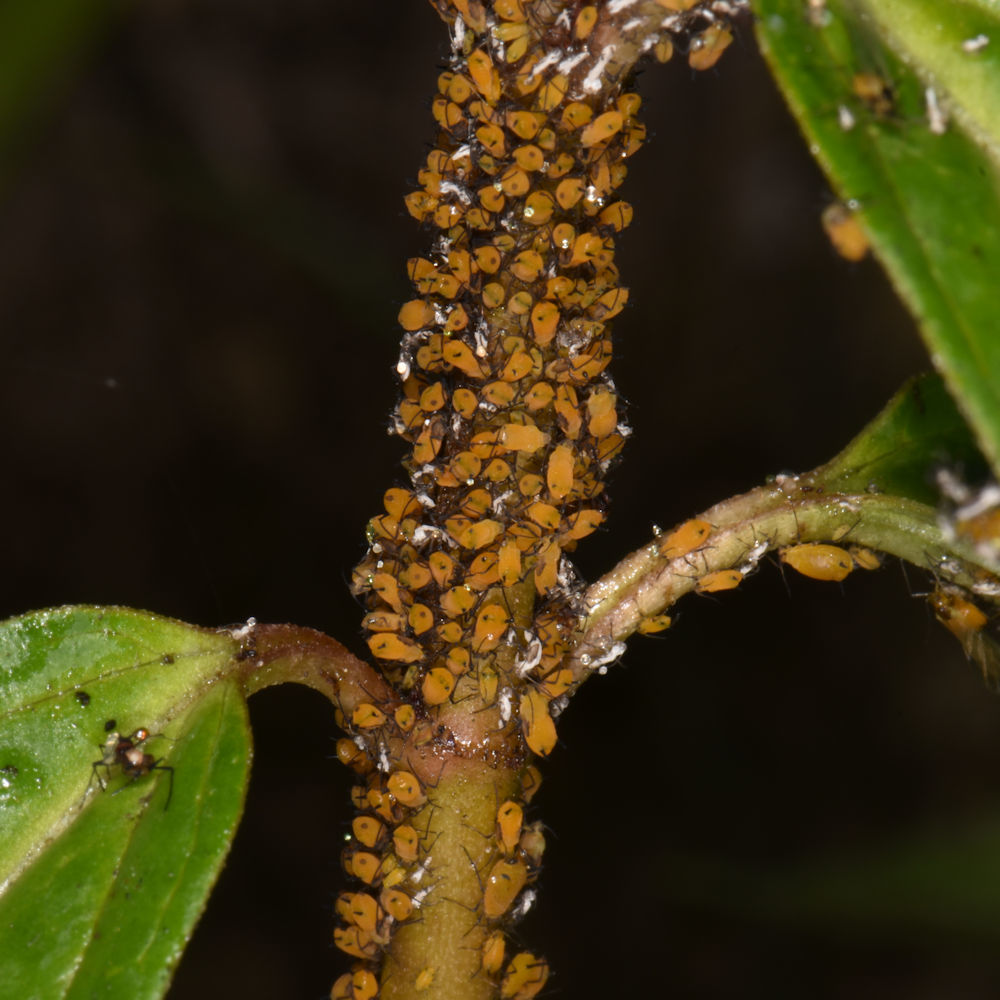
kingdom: Animalia
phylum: Arthropoda
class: Insecta
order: Hemiptera
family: Aphididae
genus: Aphis
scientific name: Aphis nerii
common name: Oleander aphid
